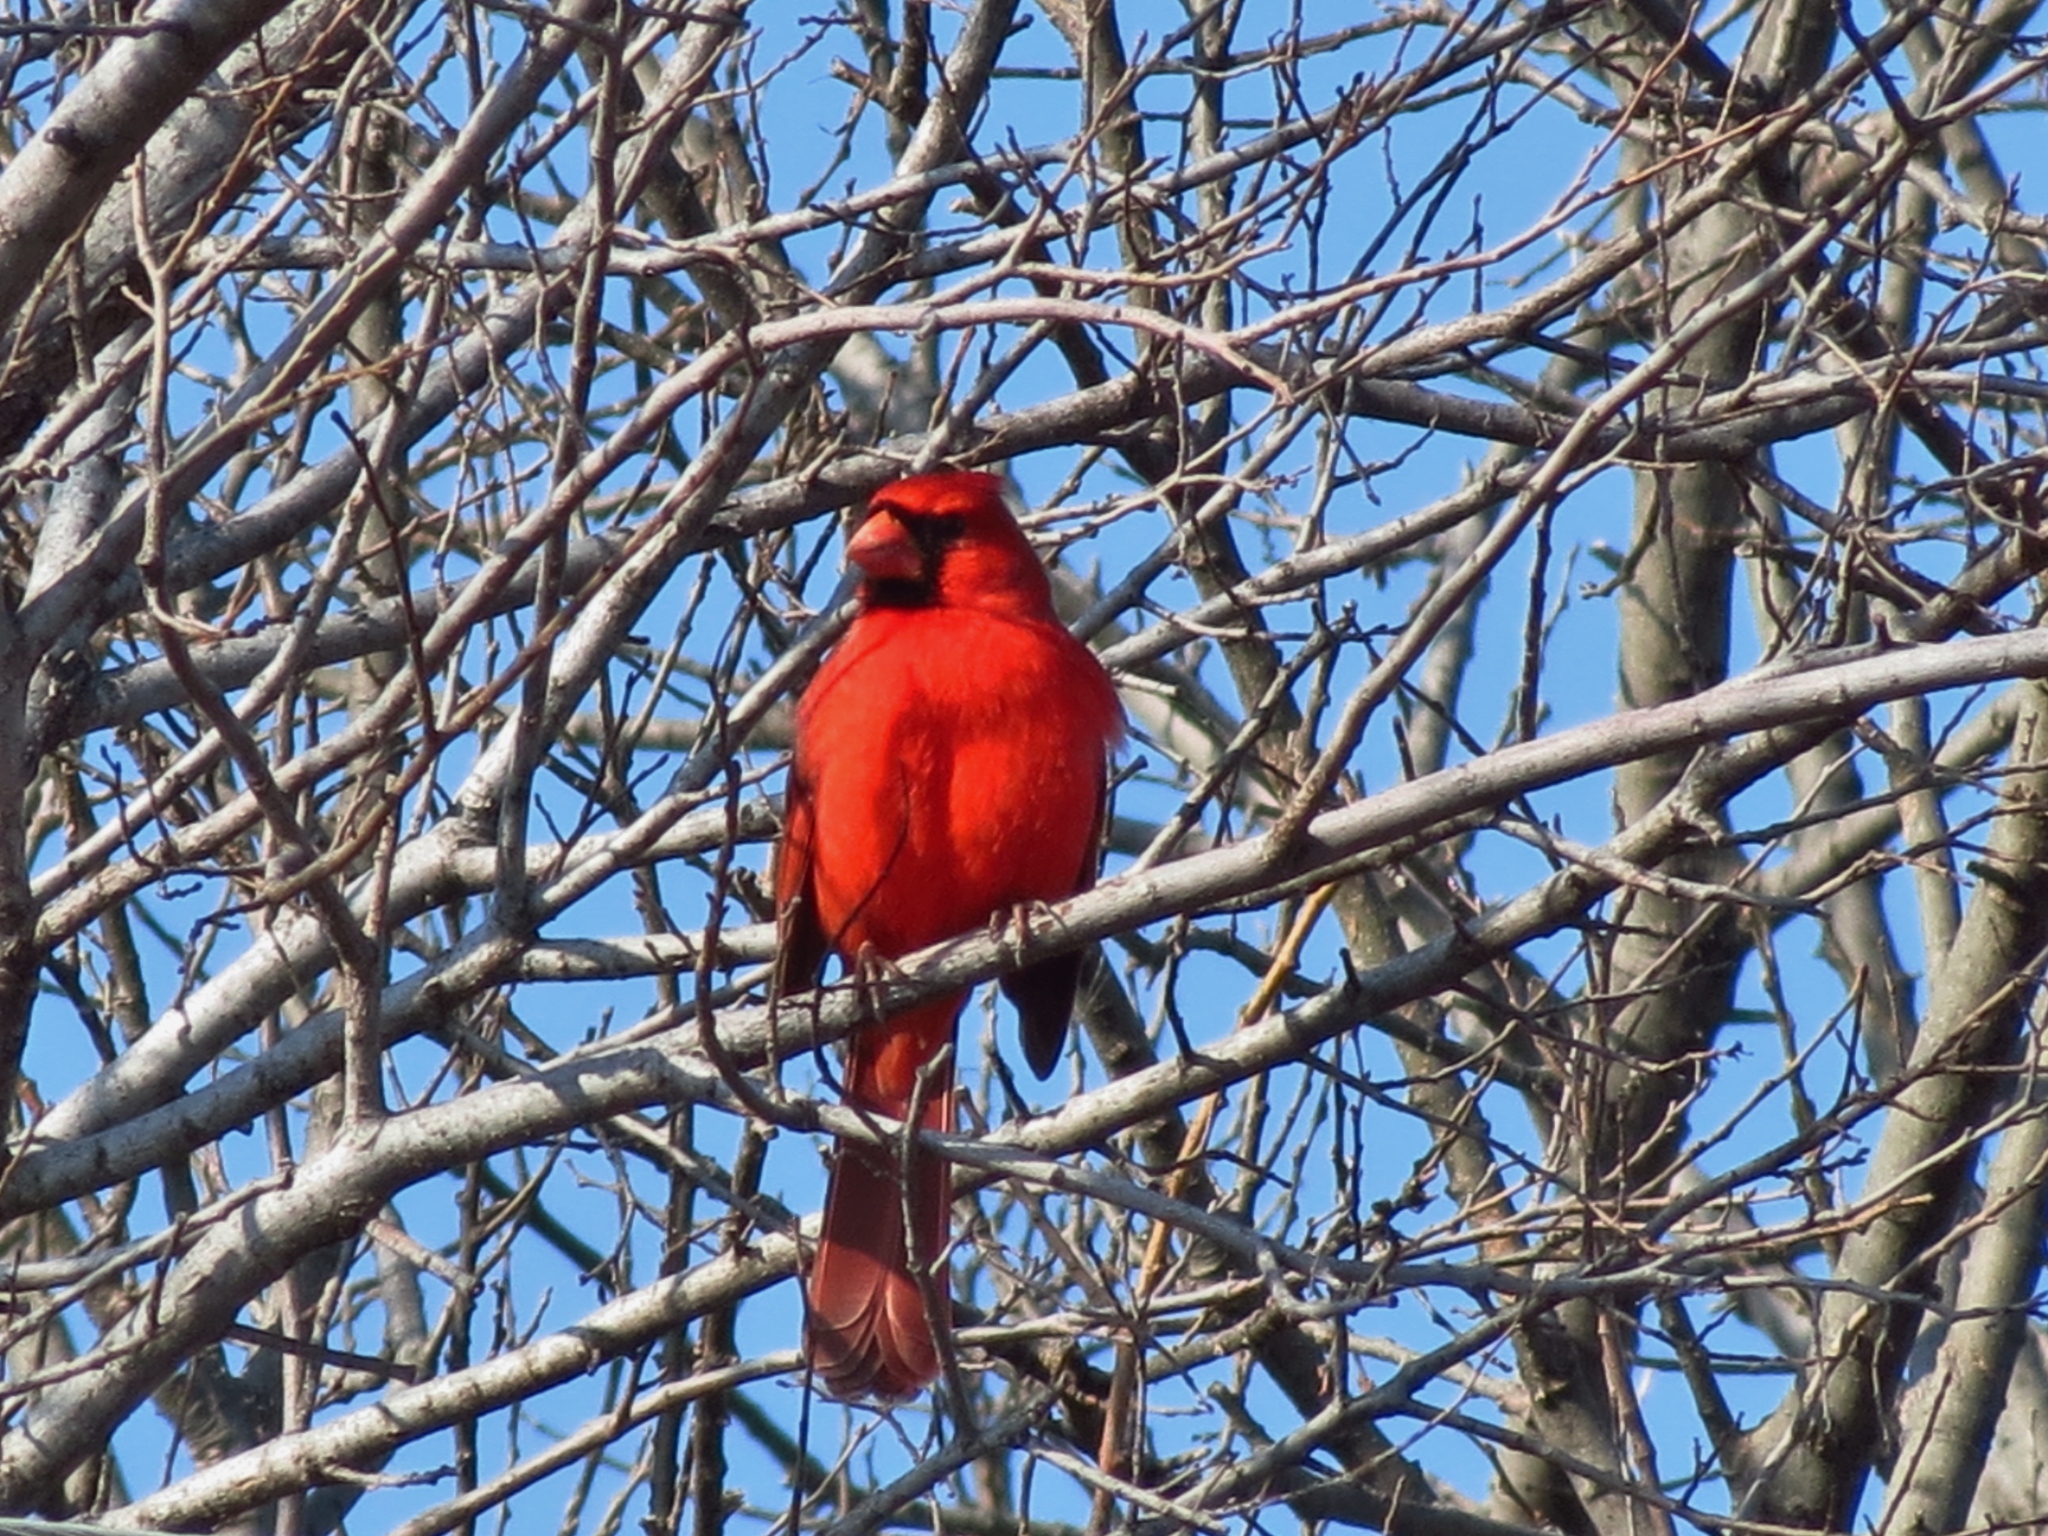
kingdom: Animalia
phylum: Chordata
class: Aves
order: Passeriformes
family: Cardinalidae
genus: Cardinalis
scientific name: Cardinalis cardinalis
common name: Northern cardinal
